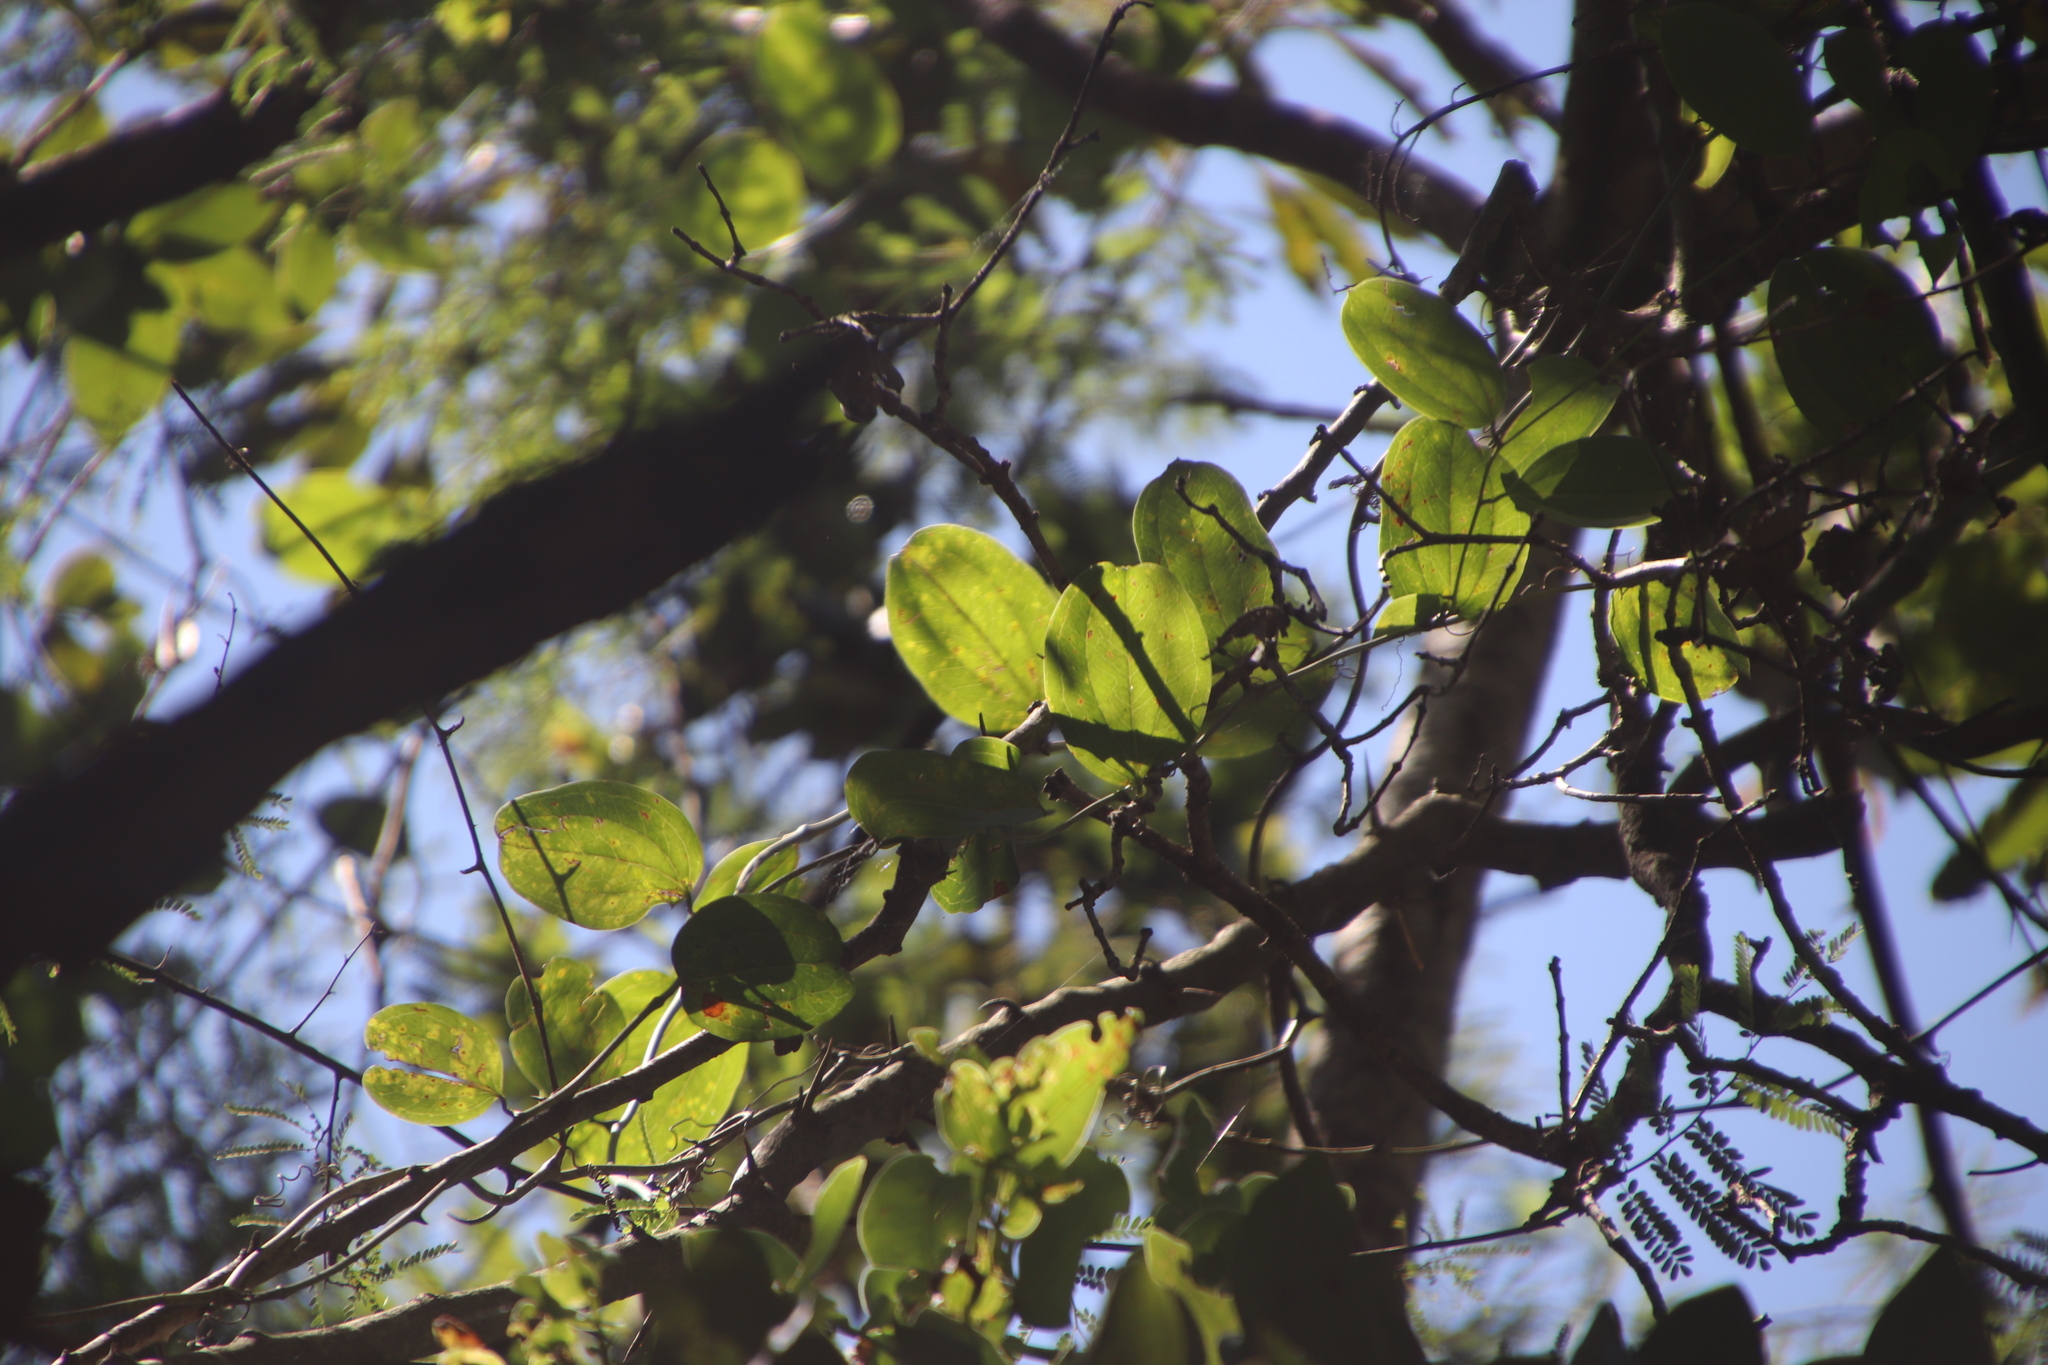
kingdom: Plantae
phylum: Tracheophyta
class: Liliopsida
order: Liliales
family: Smilacaceae
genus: Smilax
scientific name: Smilax anceps
